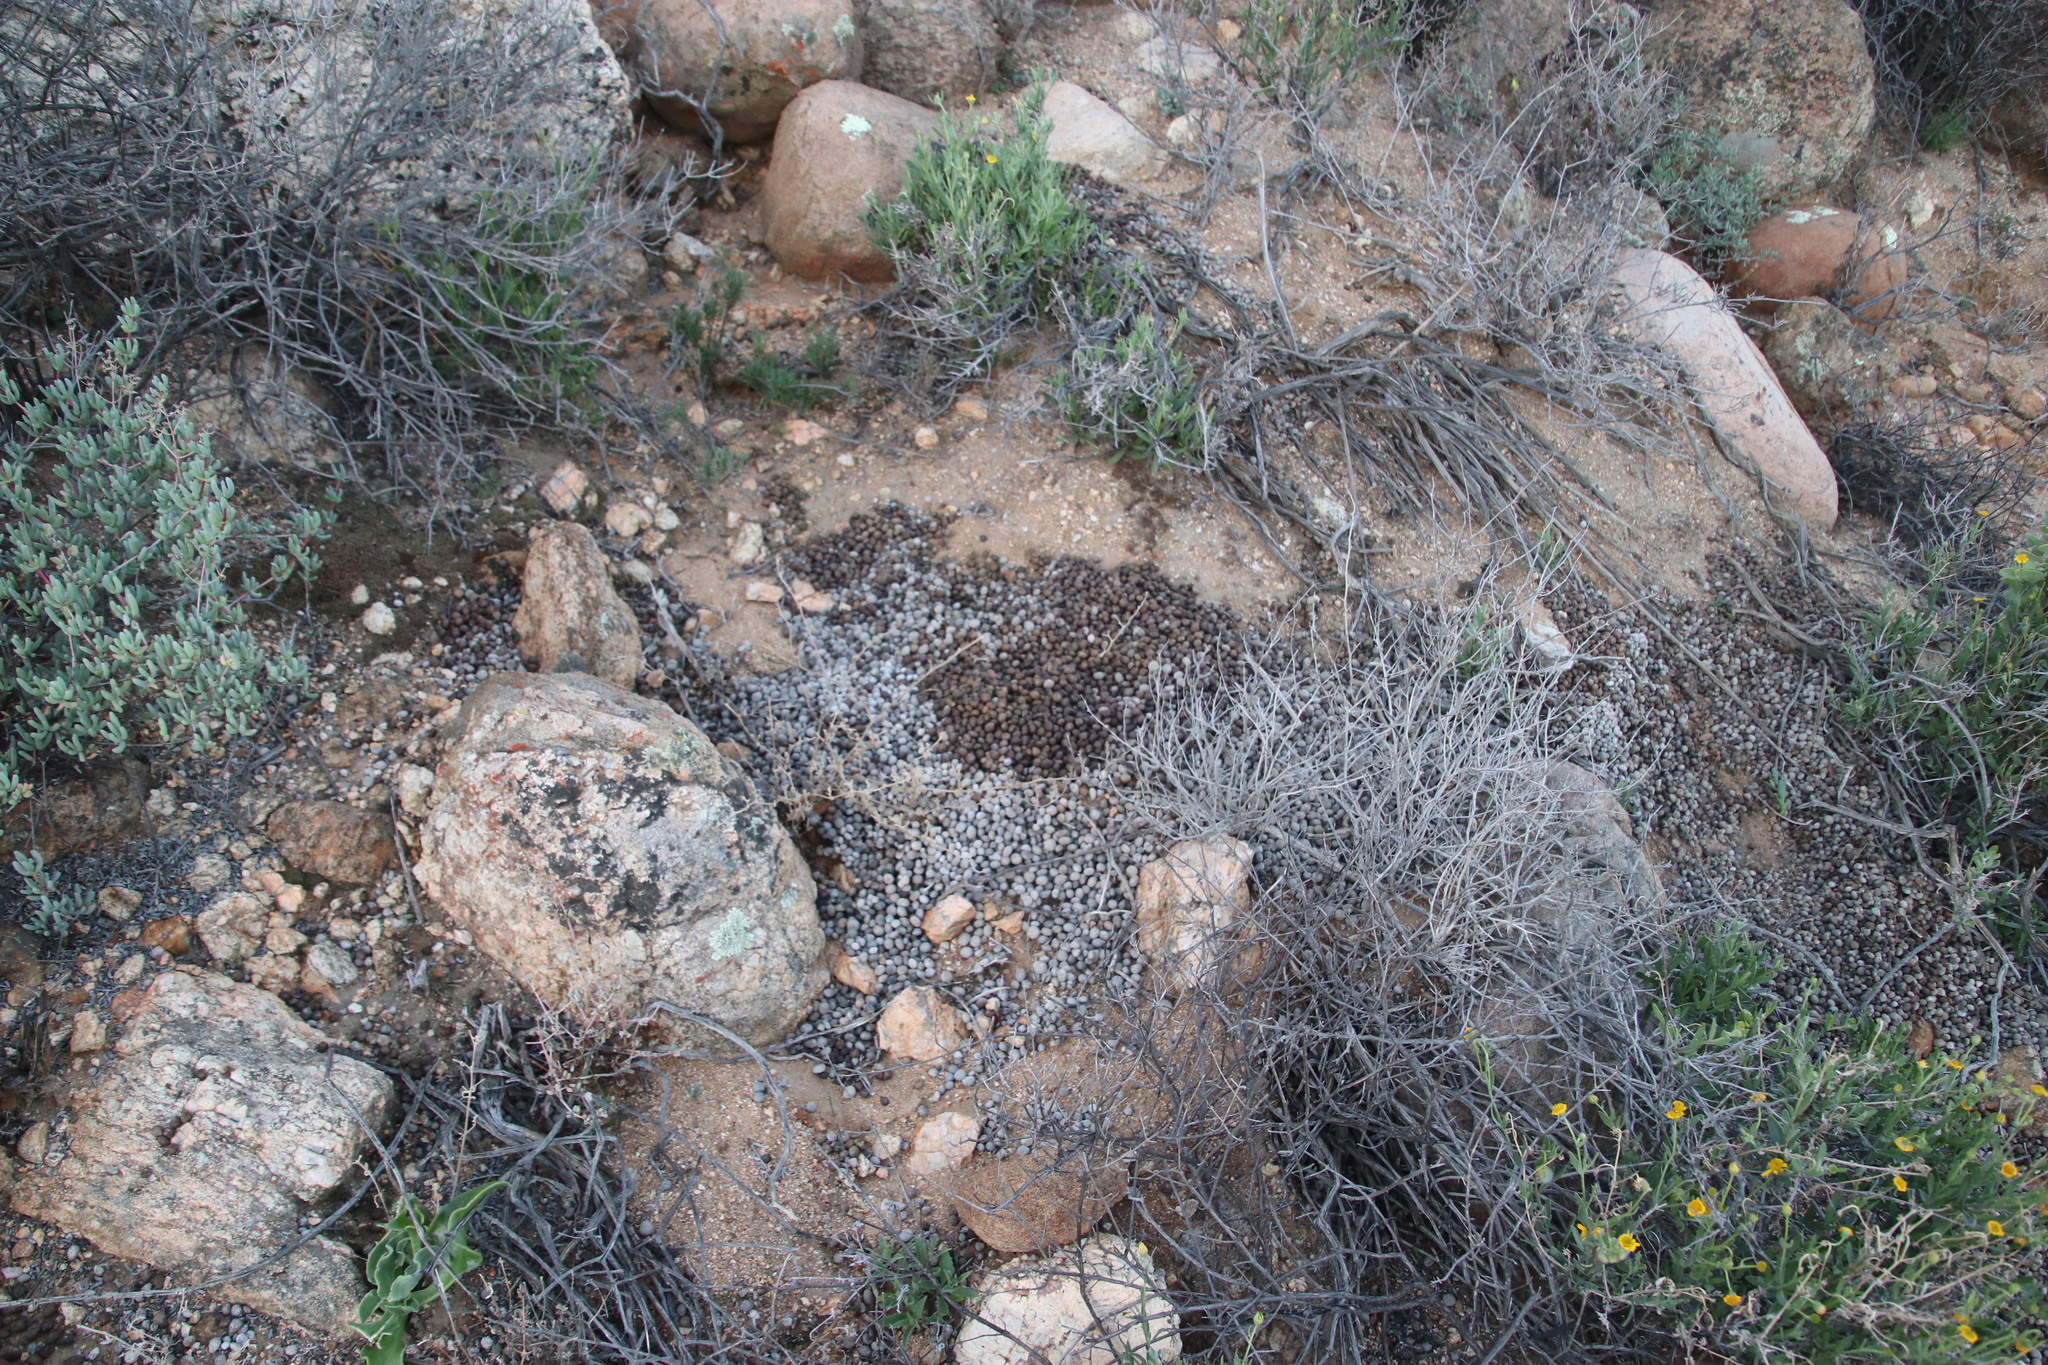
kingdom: Animalia
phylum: Chordata
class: Mammalia
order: Lagomorpha
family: Leporidae
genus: Pronolagus
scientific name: Pronolagus rupestris
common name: Smith's red rock hare
